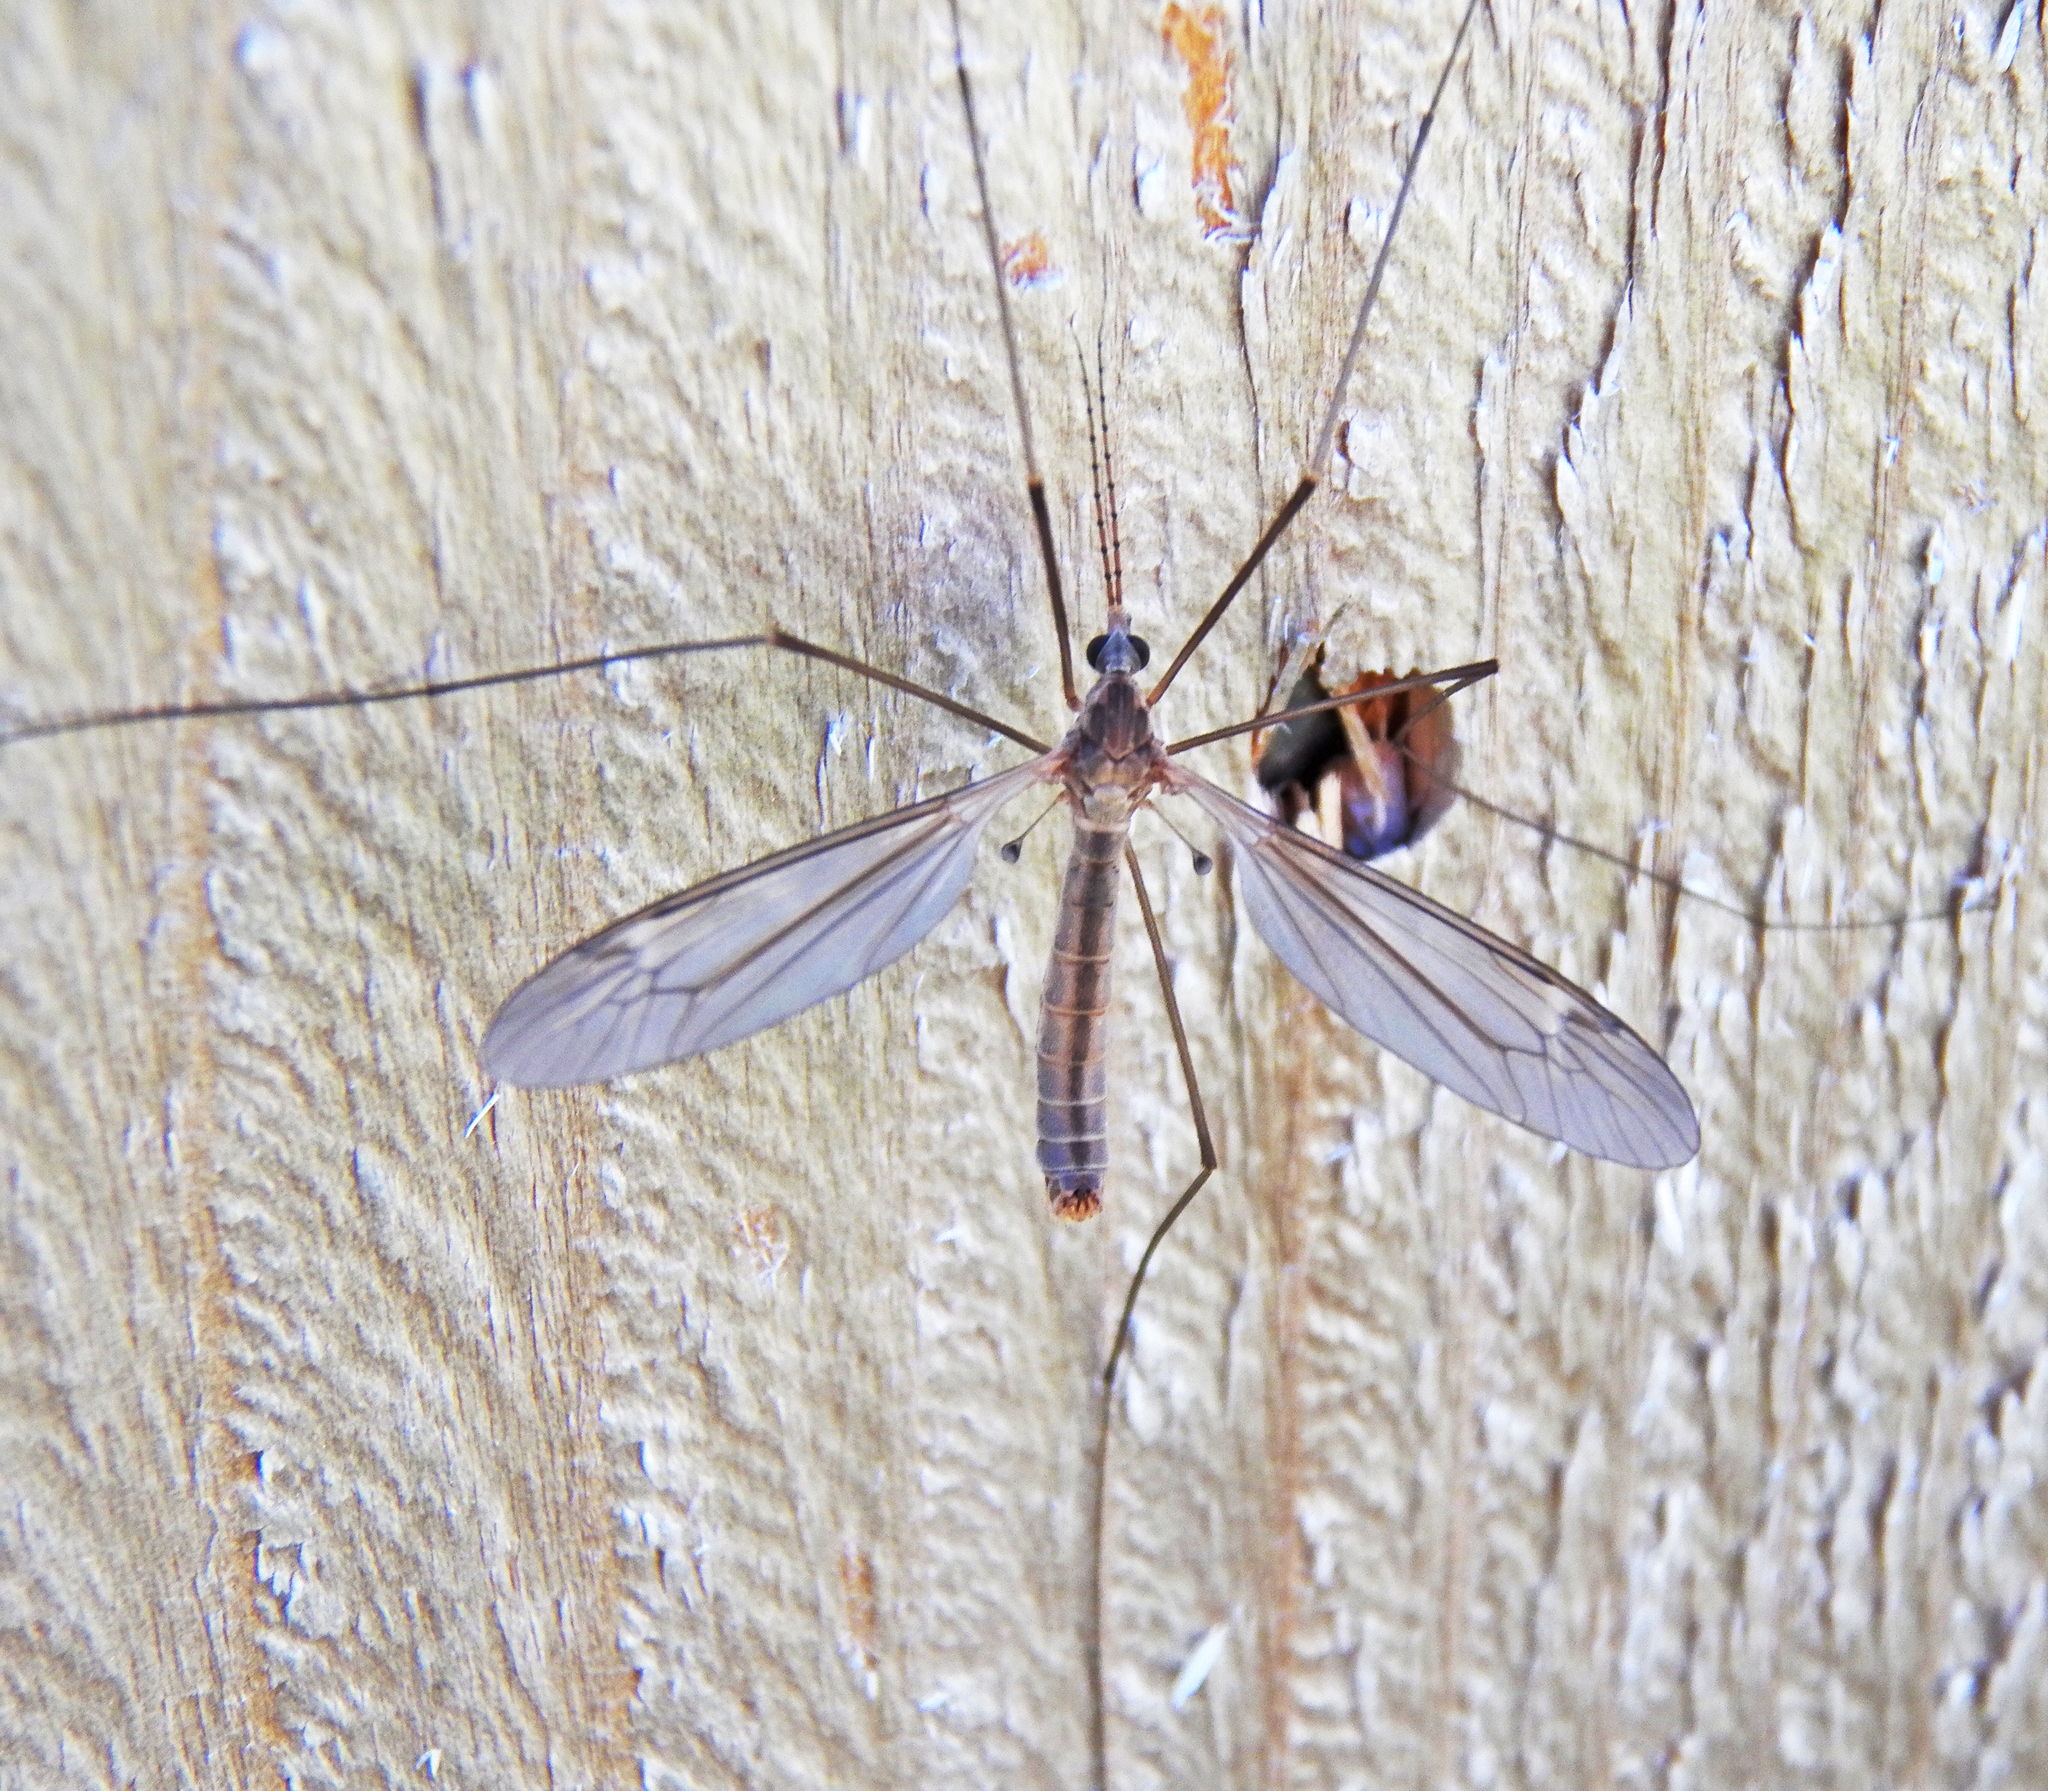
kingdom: Animalia
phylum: Arthropoda
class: Insecta
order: Diptera
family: Tipulidae
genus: Tipula
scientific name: Tipula oleracea
